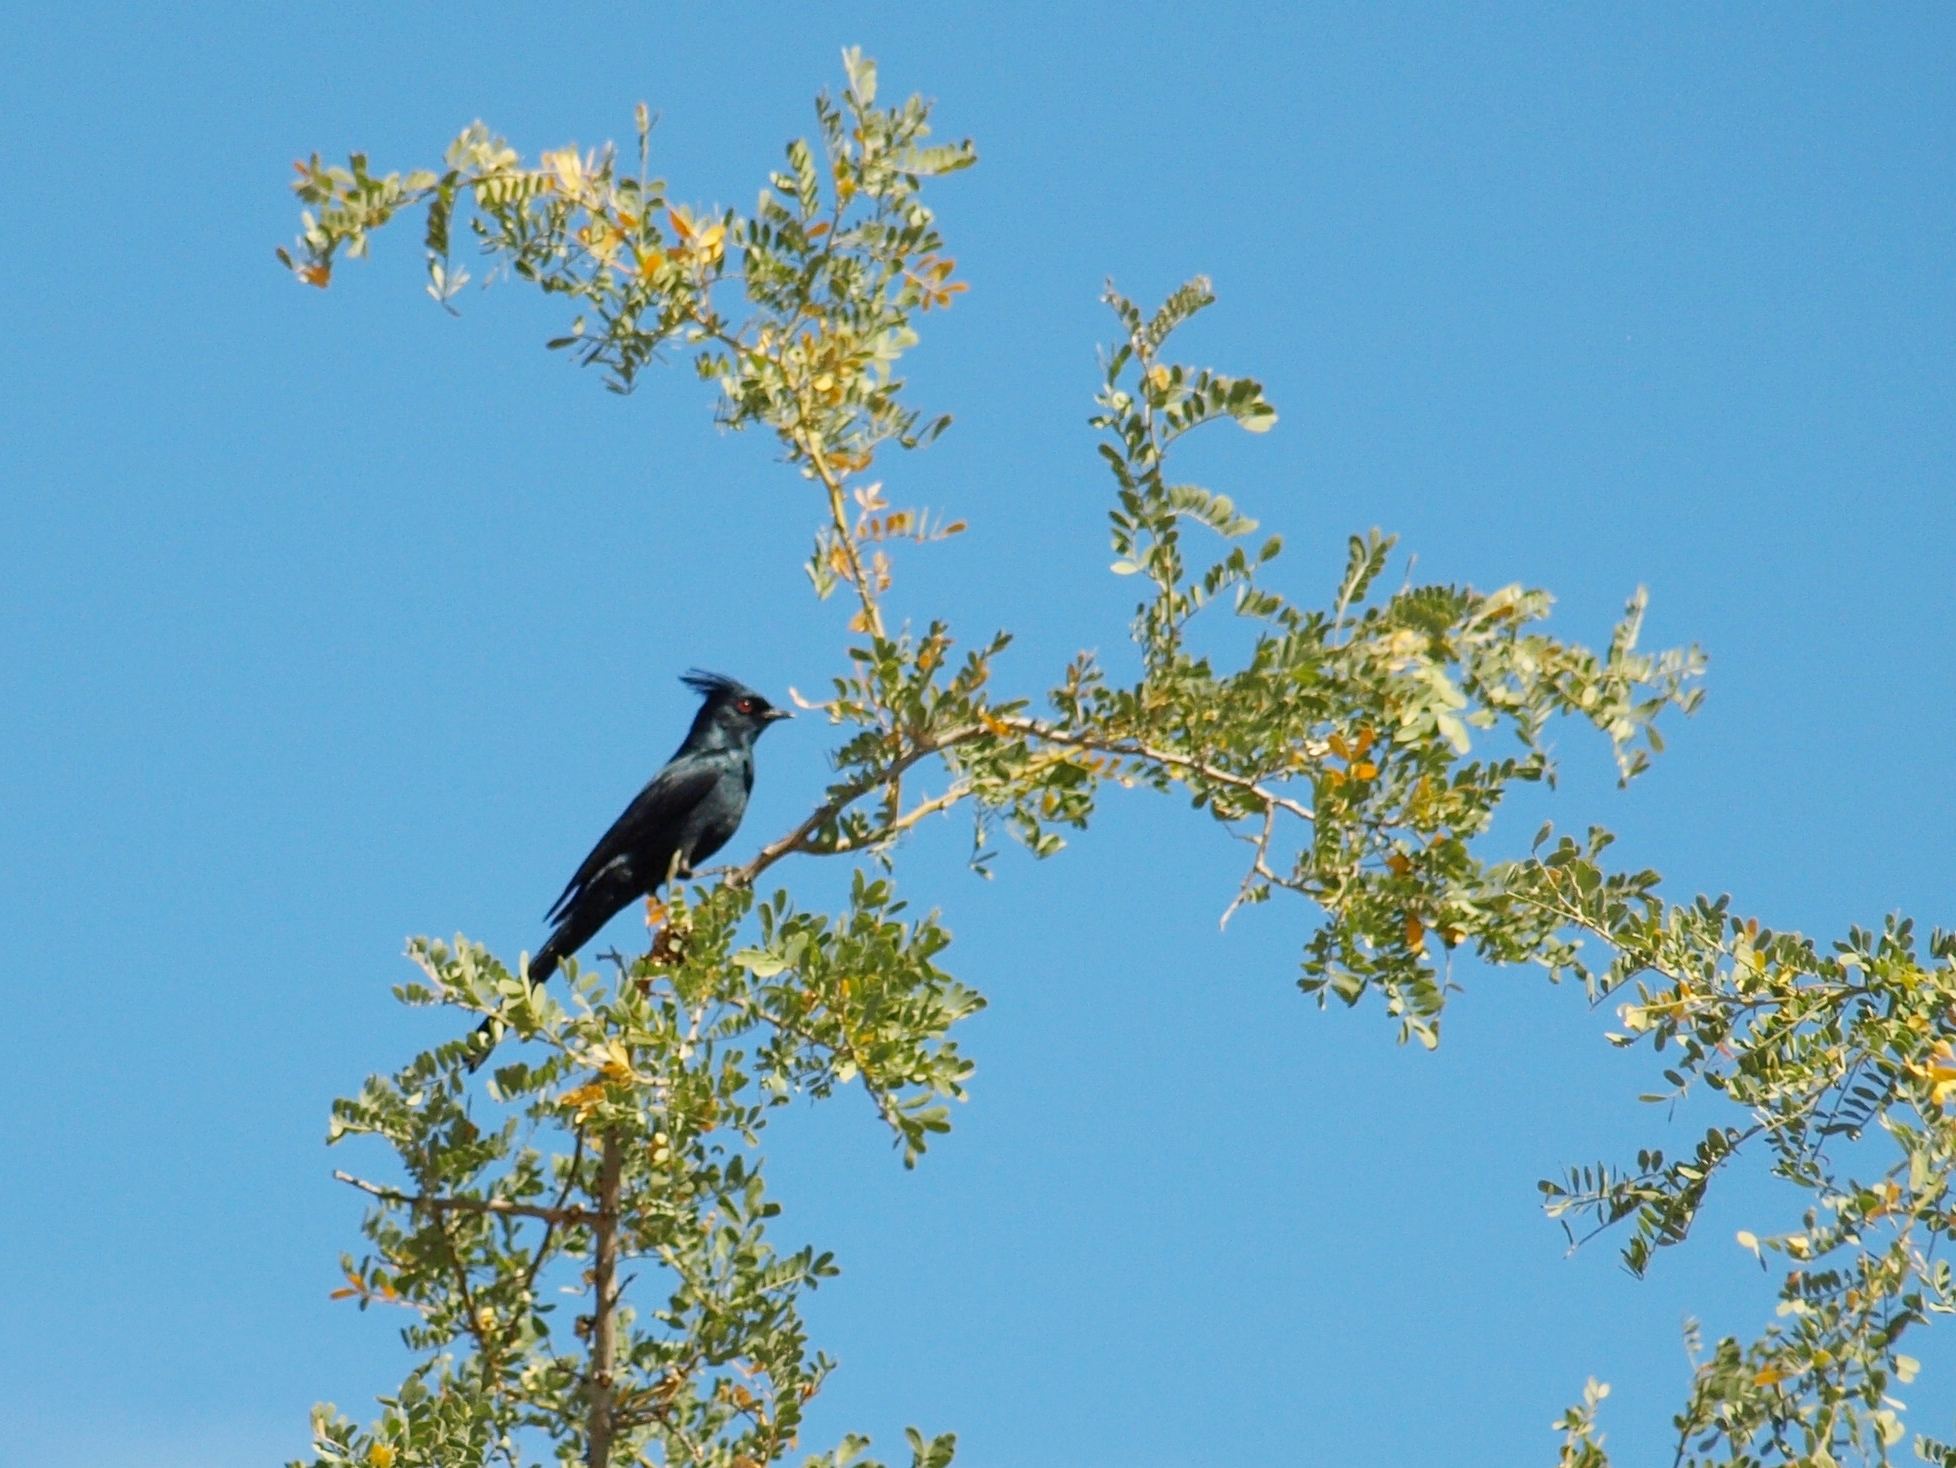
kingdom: Animalia
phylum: Chordata
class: Aves
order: Passeriformes
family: Ptilogonatidae
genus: Phainopepla
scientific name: Phainopepla nitens
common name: Phainopepla
